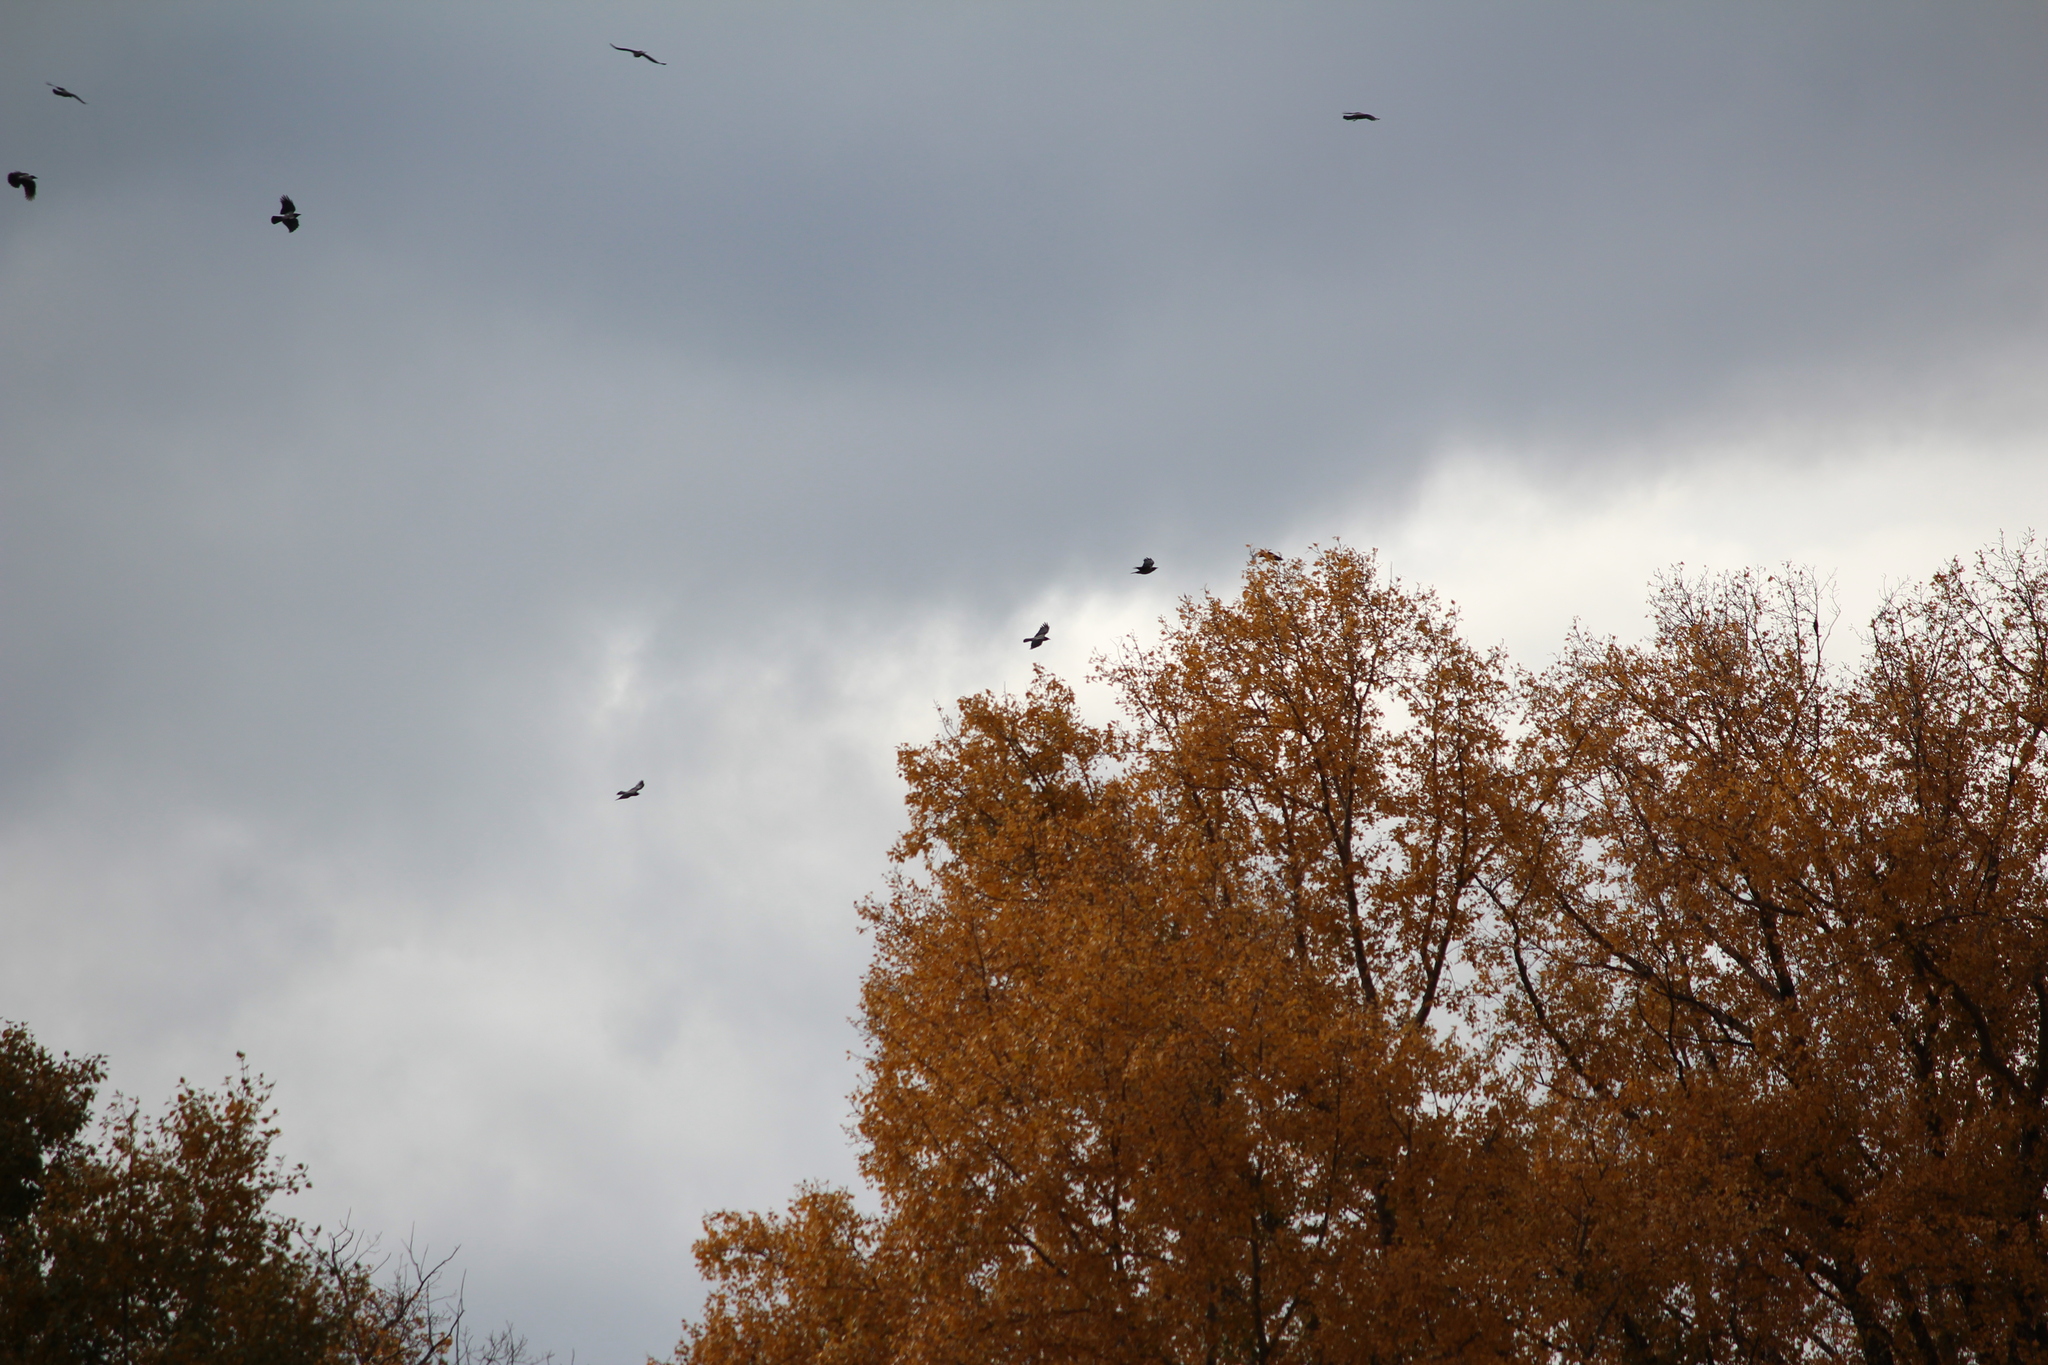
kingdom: Animalia
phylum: Chordata
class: Aves
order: Passeriformes
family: Corvidae
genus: Corvus
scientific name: Corvus cornix
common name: Hooded crow
